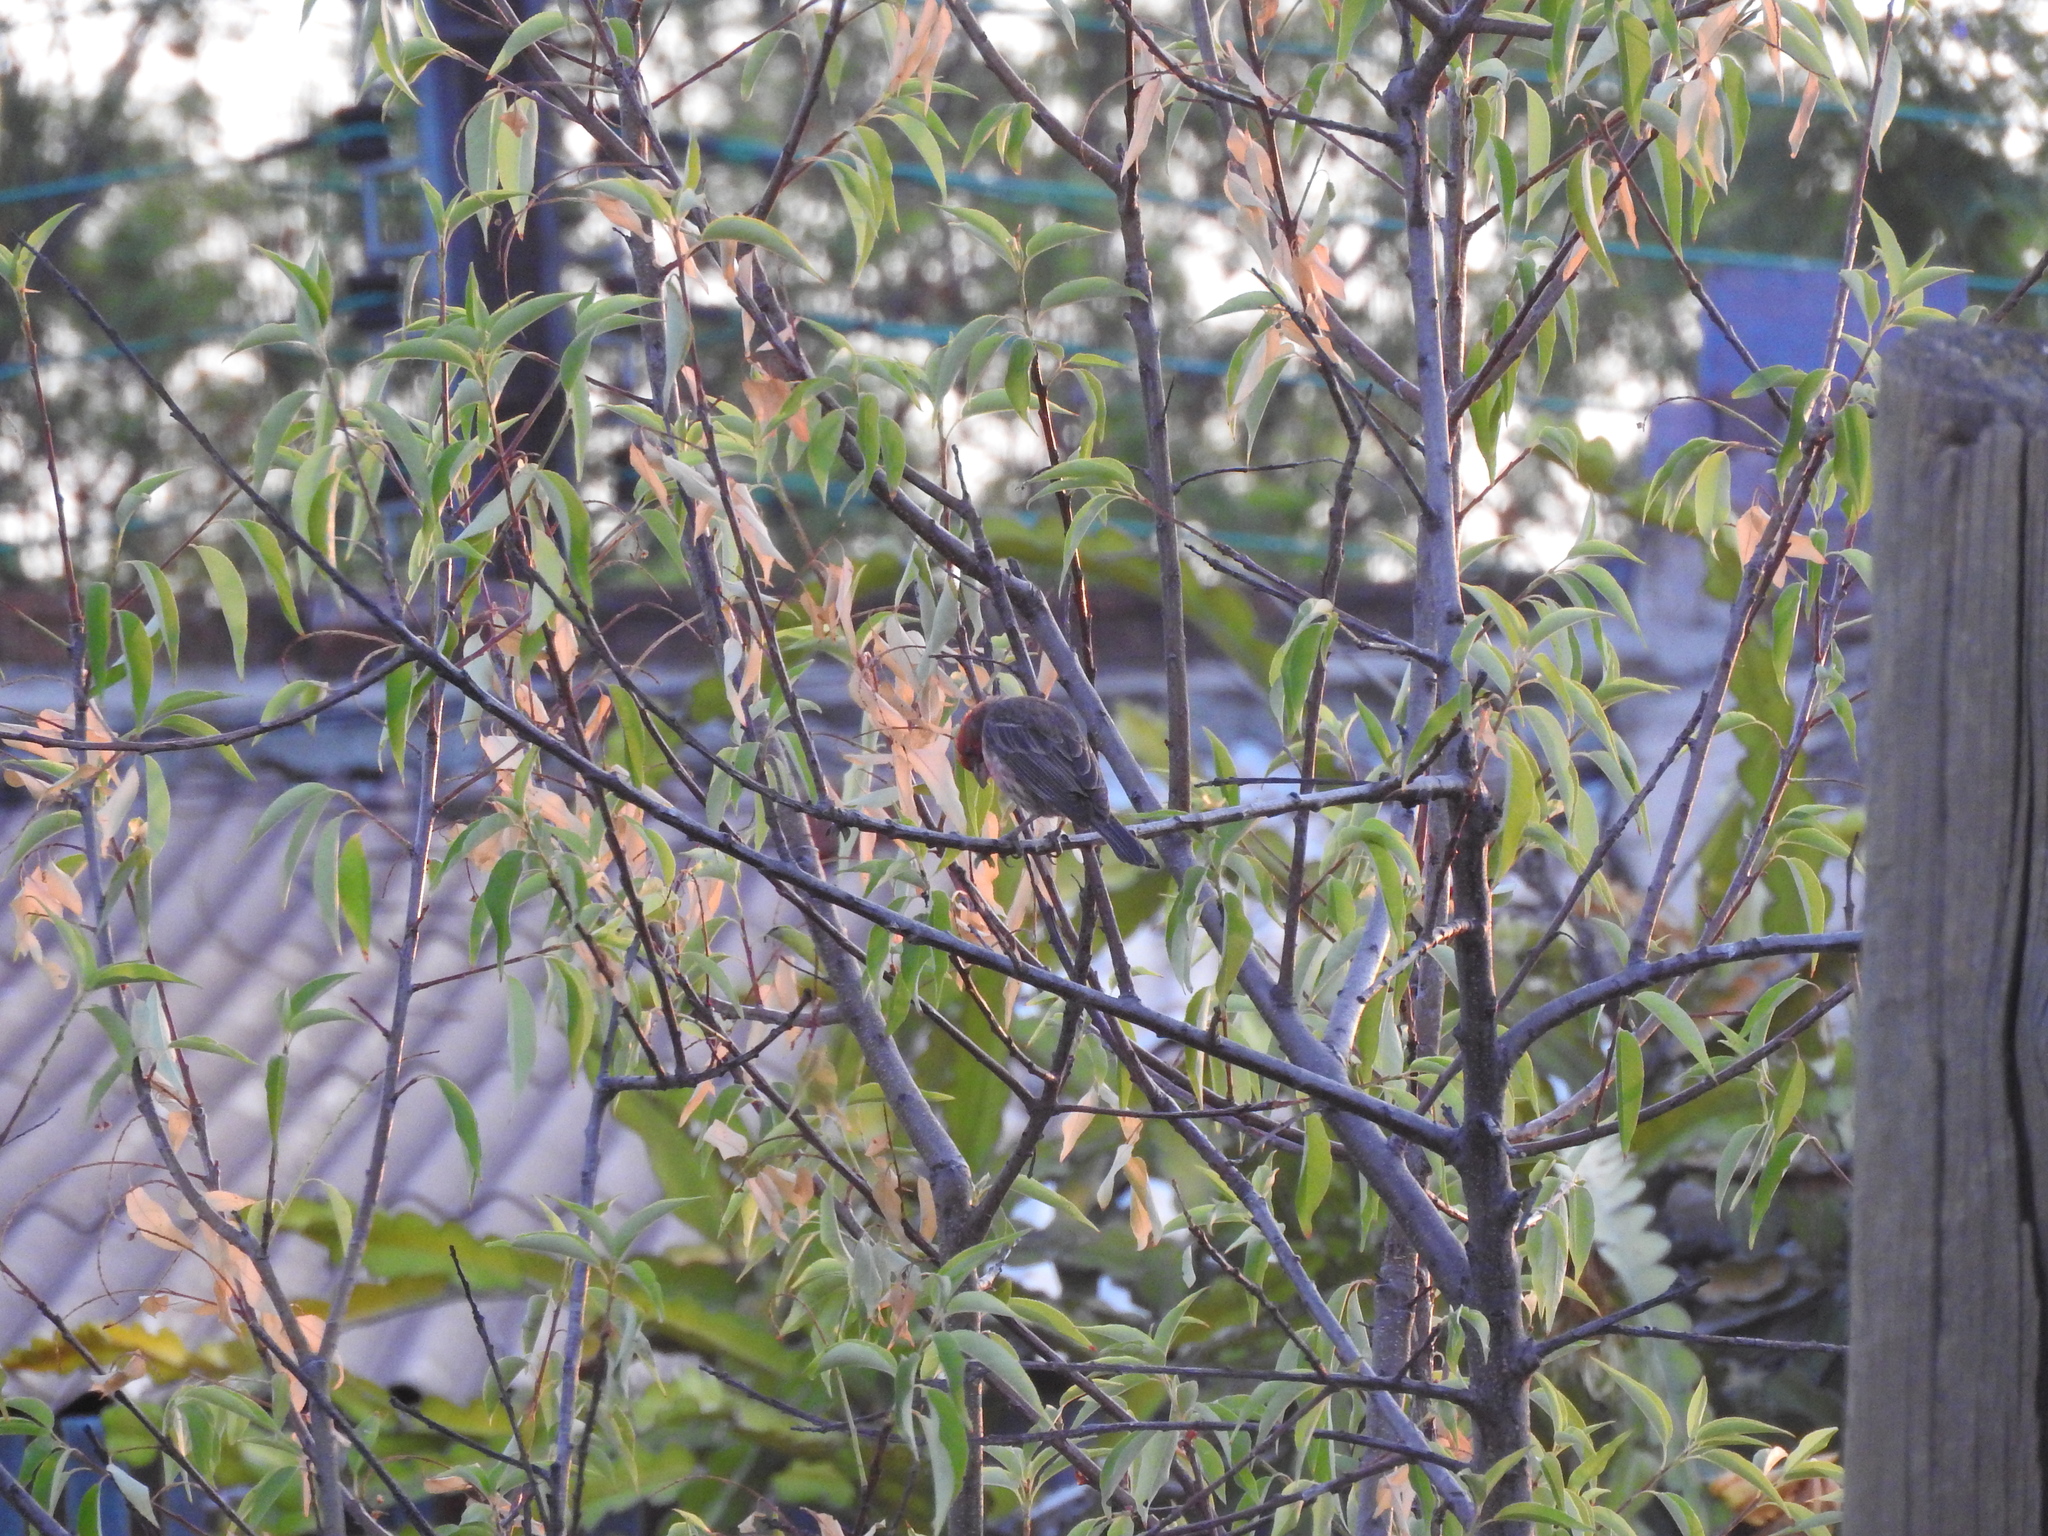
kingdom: Animalia
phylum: Chordata
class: Aves
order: Passeriformes
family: Fringillidae
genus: Haemorhous
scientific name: Haemorhous mexicanus
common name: House finch
